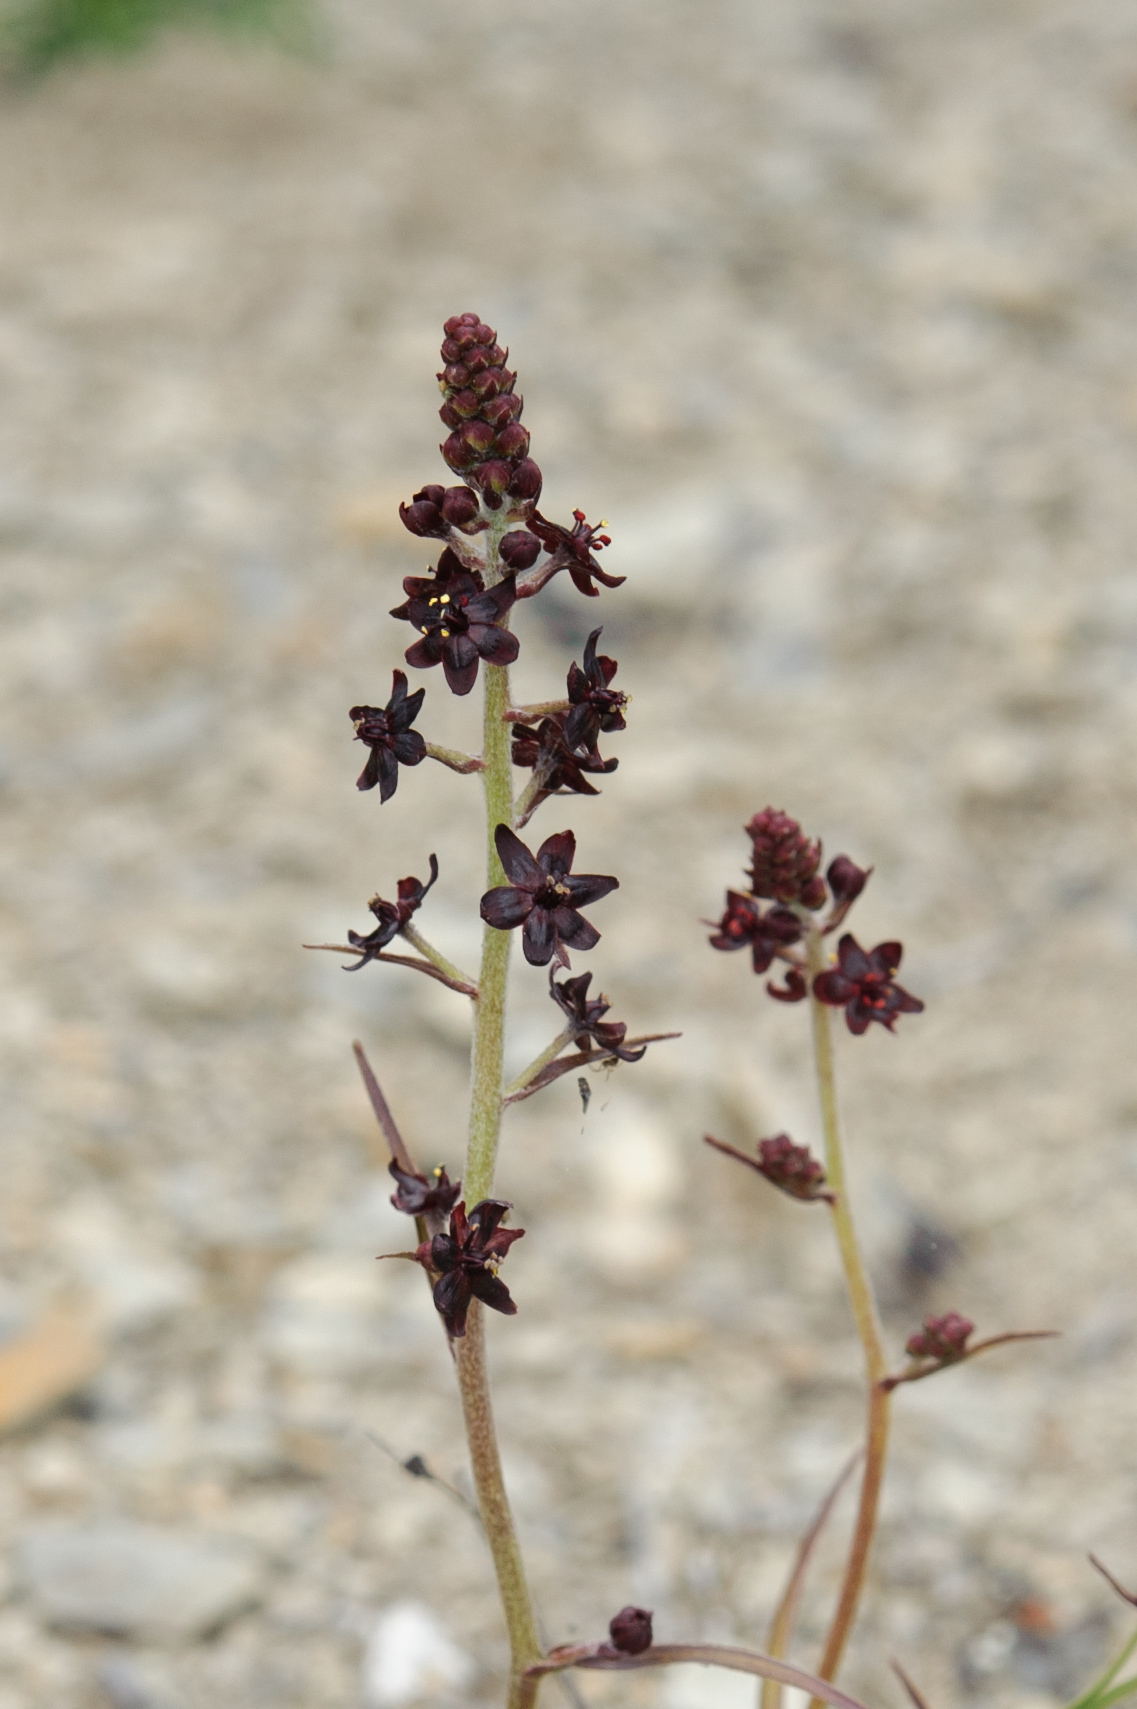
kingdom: Plantae
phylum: Tracheophyta
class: Liliopsida
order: Liliales
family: Melanthiaceae
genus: Veratrum
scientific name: Veratrum formosanum
